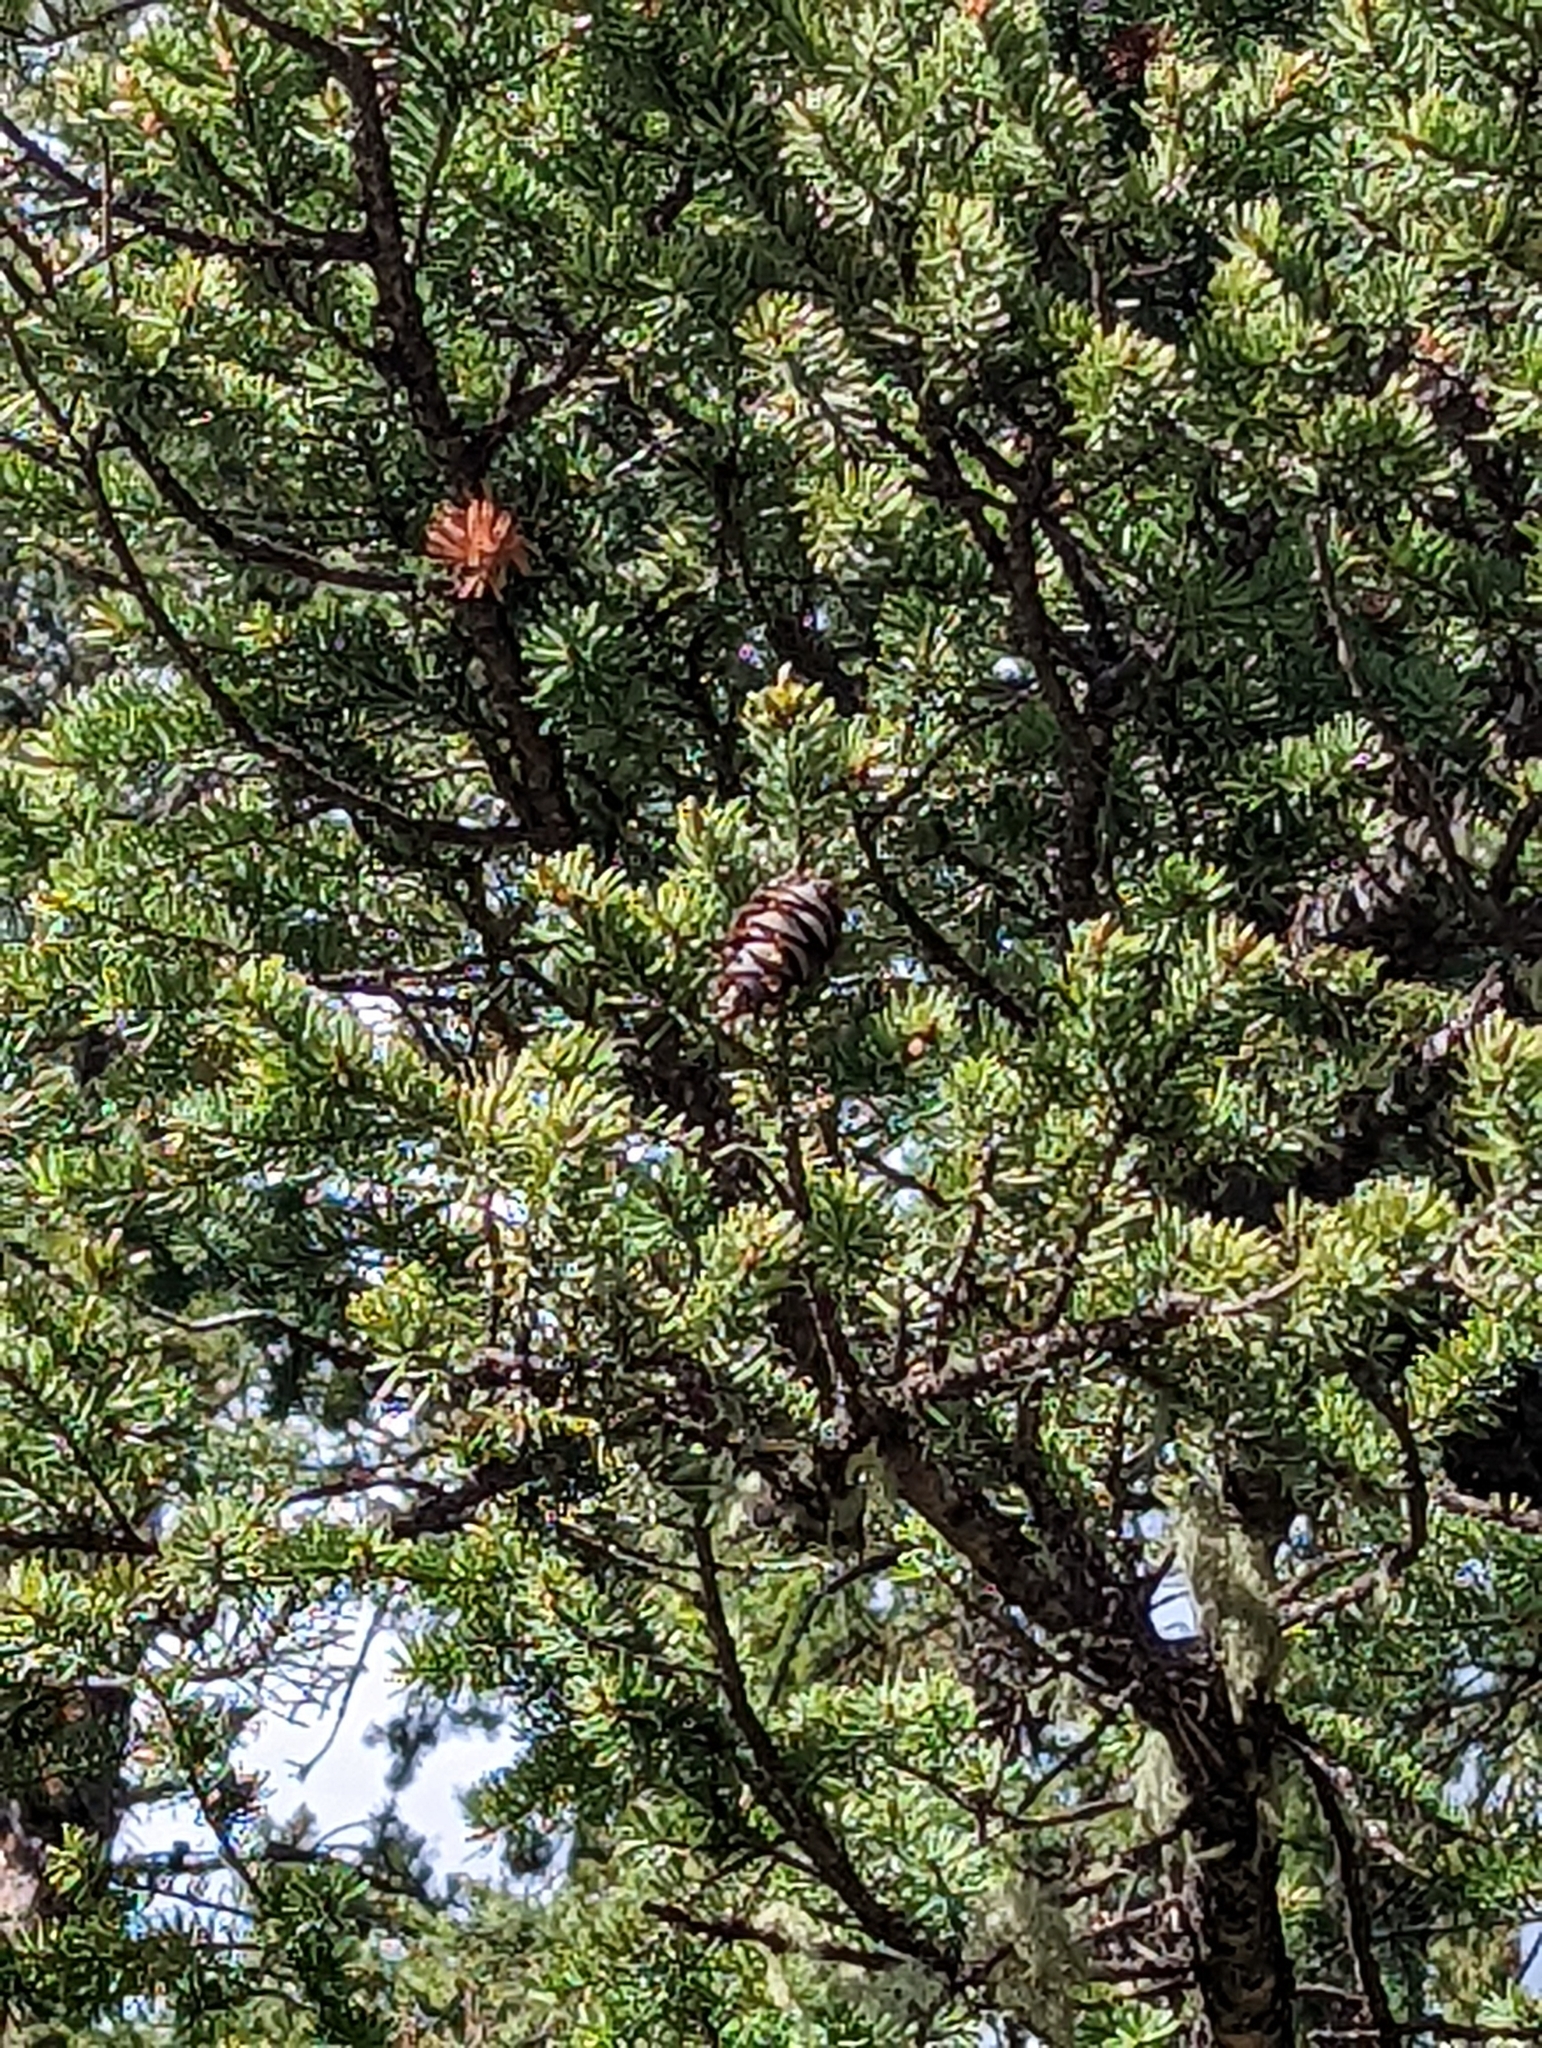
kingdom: Plantae
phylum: Tracheophyta
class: Pinopsida
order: Pinales
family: Pinaceae
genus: Pseudotsuga
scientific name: Pseudotsuga menziesii
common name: Douglas fir
